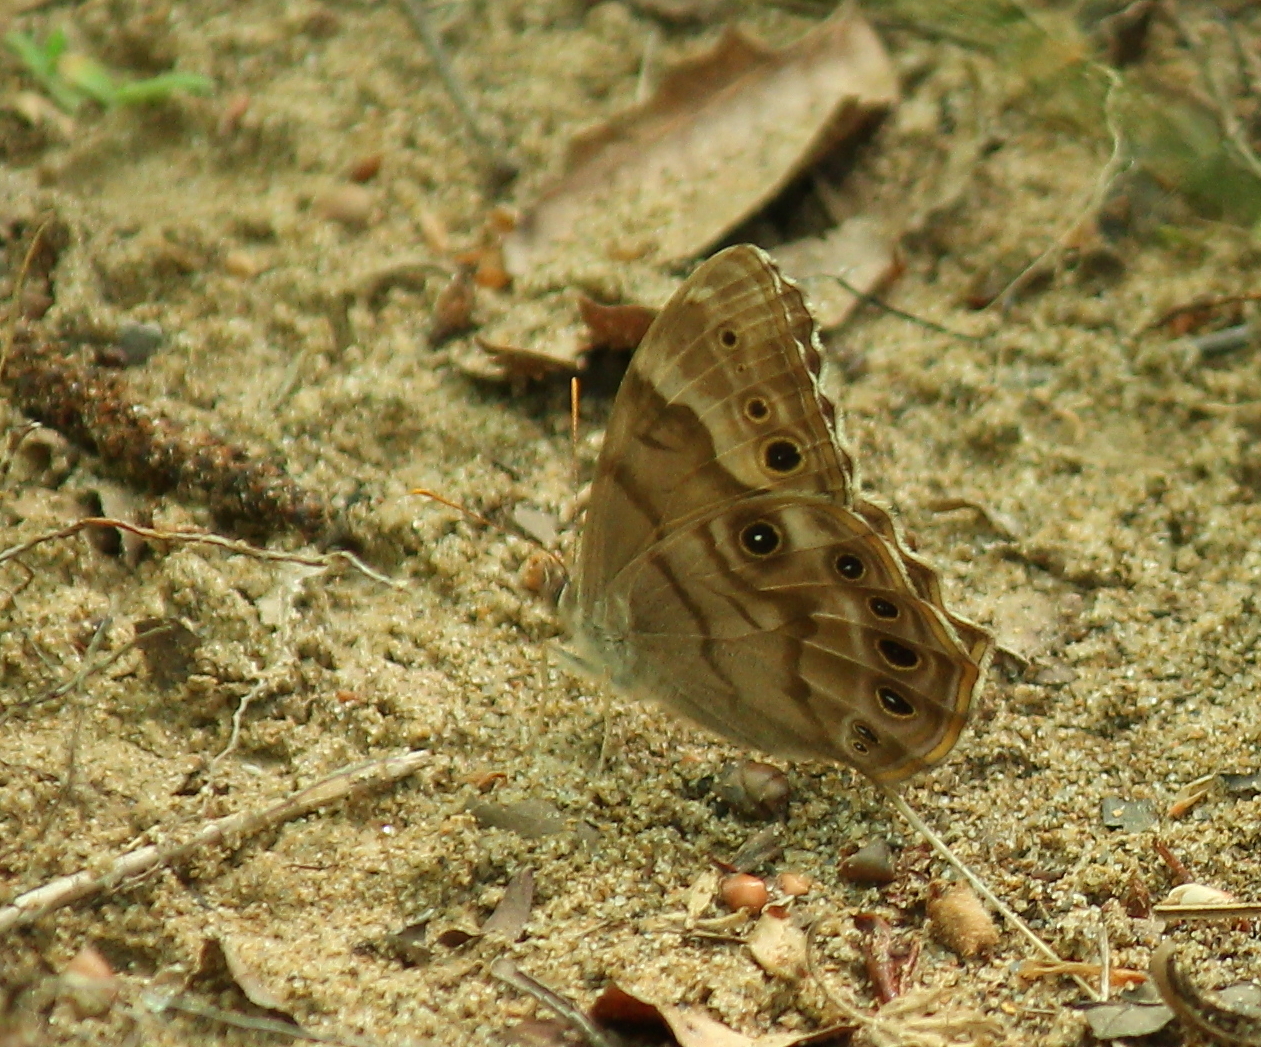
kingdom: Animalia
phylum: Arthropoda
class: Insecta
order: Lepidoptera
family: Nymphalidae
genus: Enodia
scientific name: Enodia portlandia
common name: Southern pearly-eye
